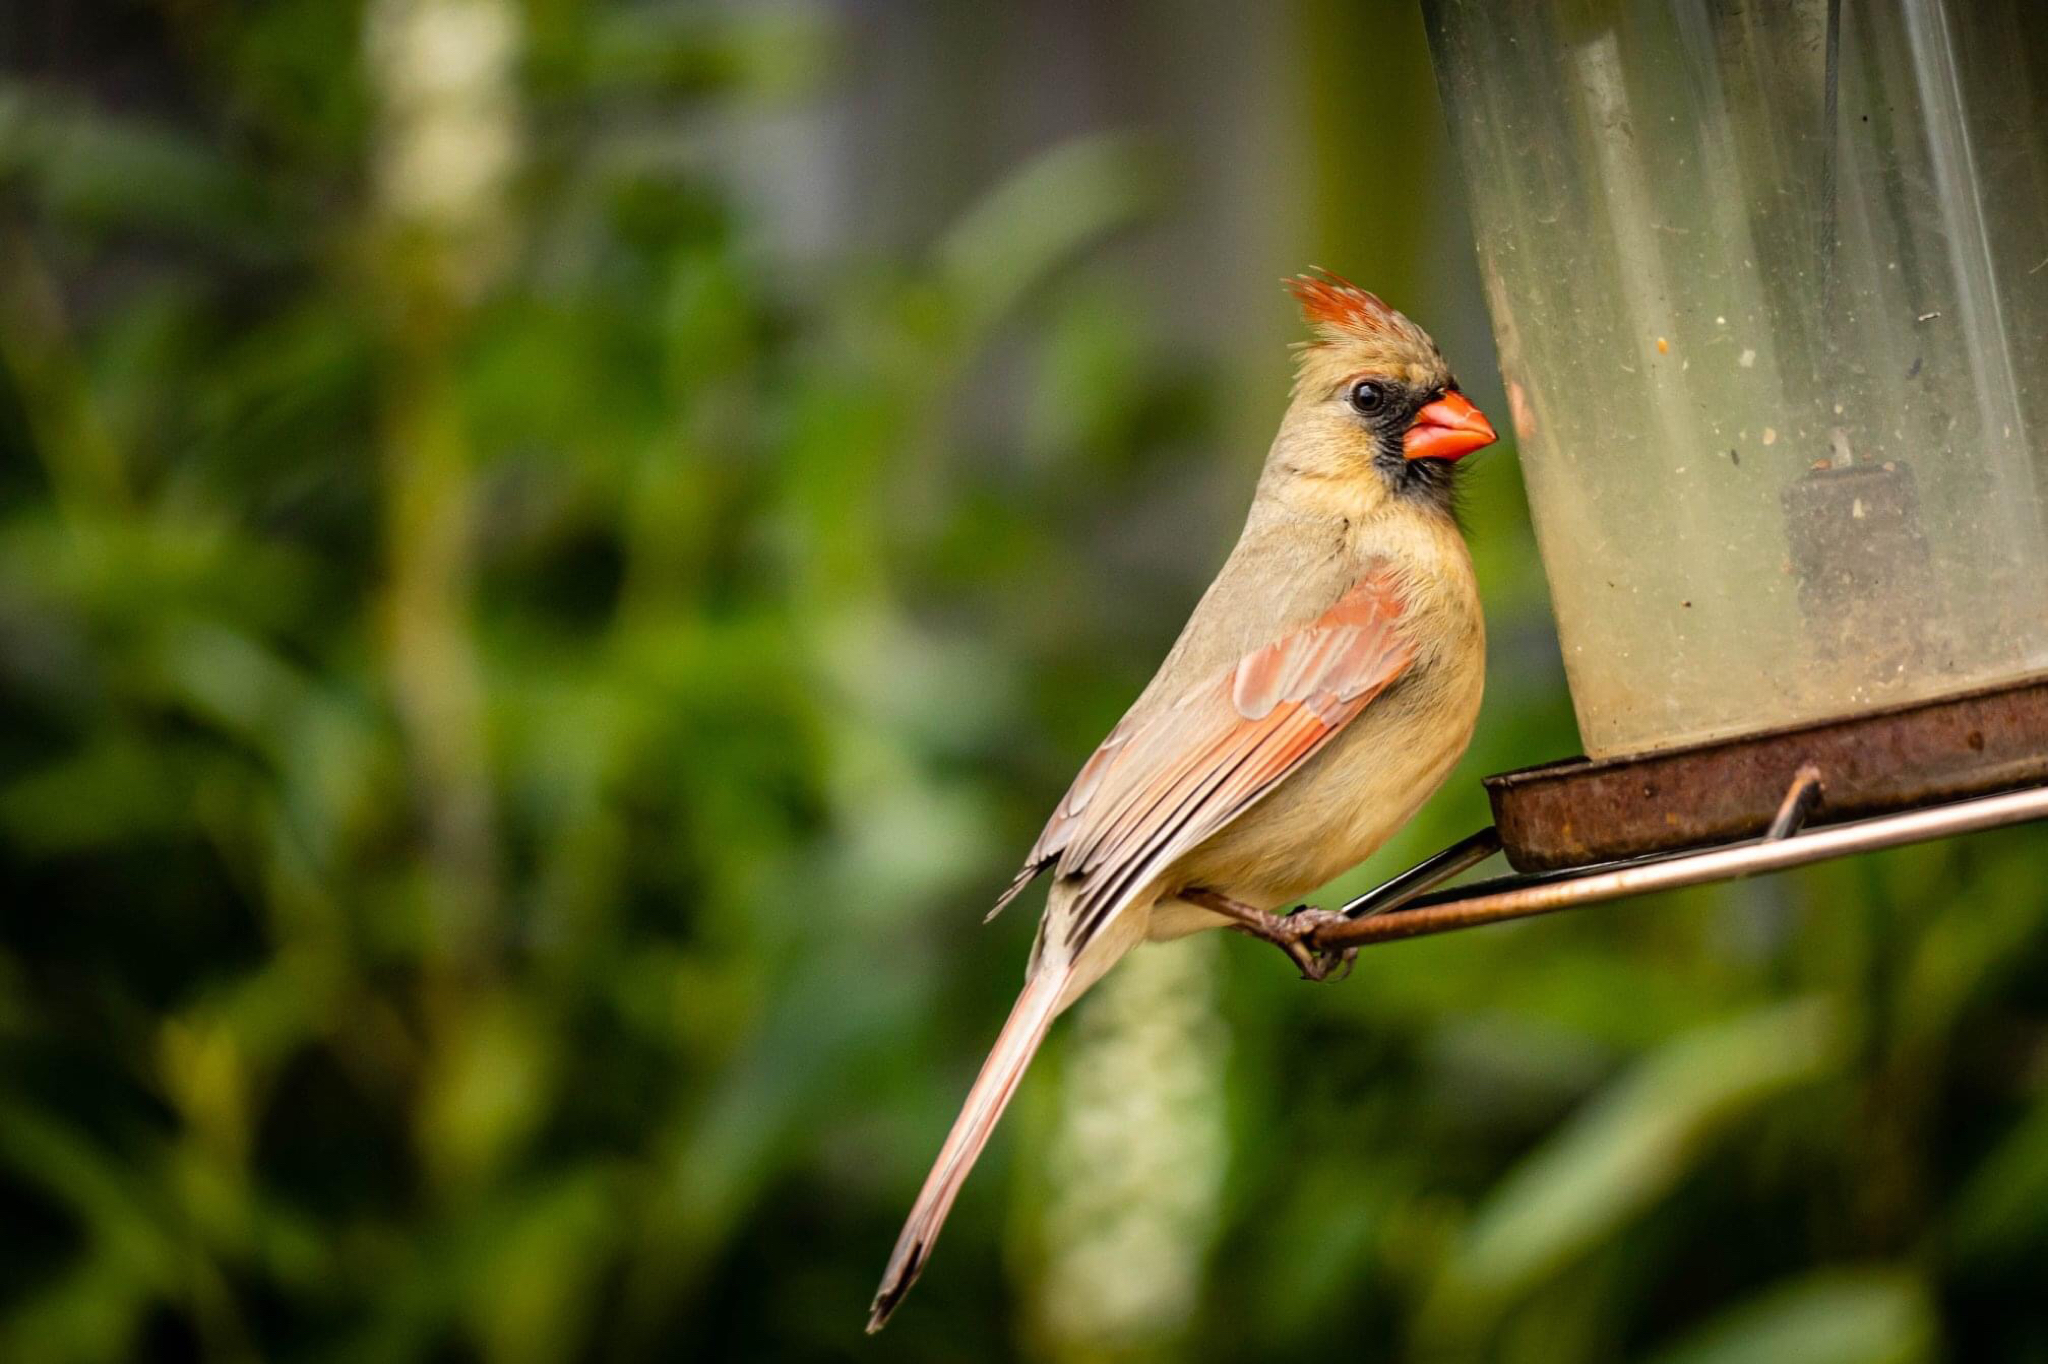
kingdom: Animalia
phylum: Chordata
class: Aves
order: Passeriformes
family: Cardinalidae
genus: Cardinalis
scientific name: Cardinalis cardinalis
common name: Northern cardinal
